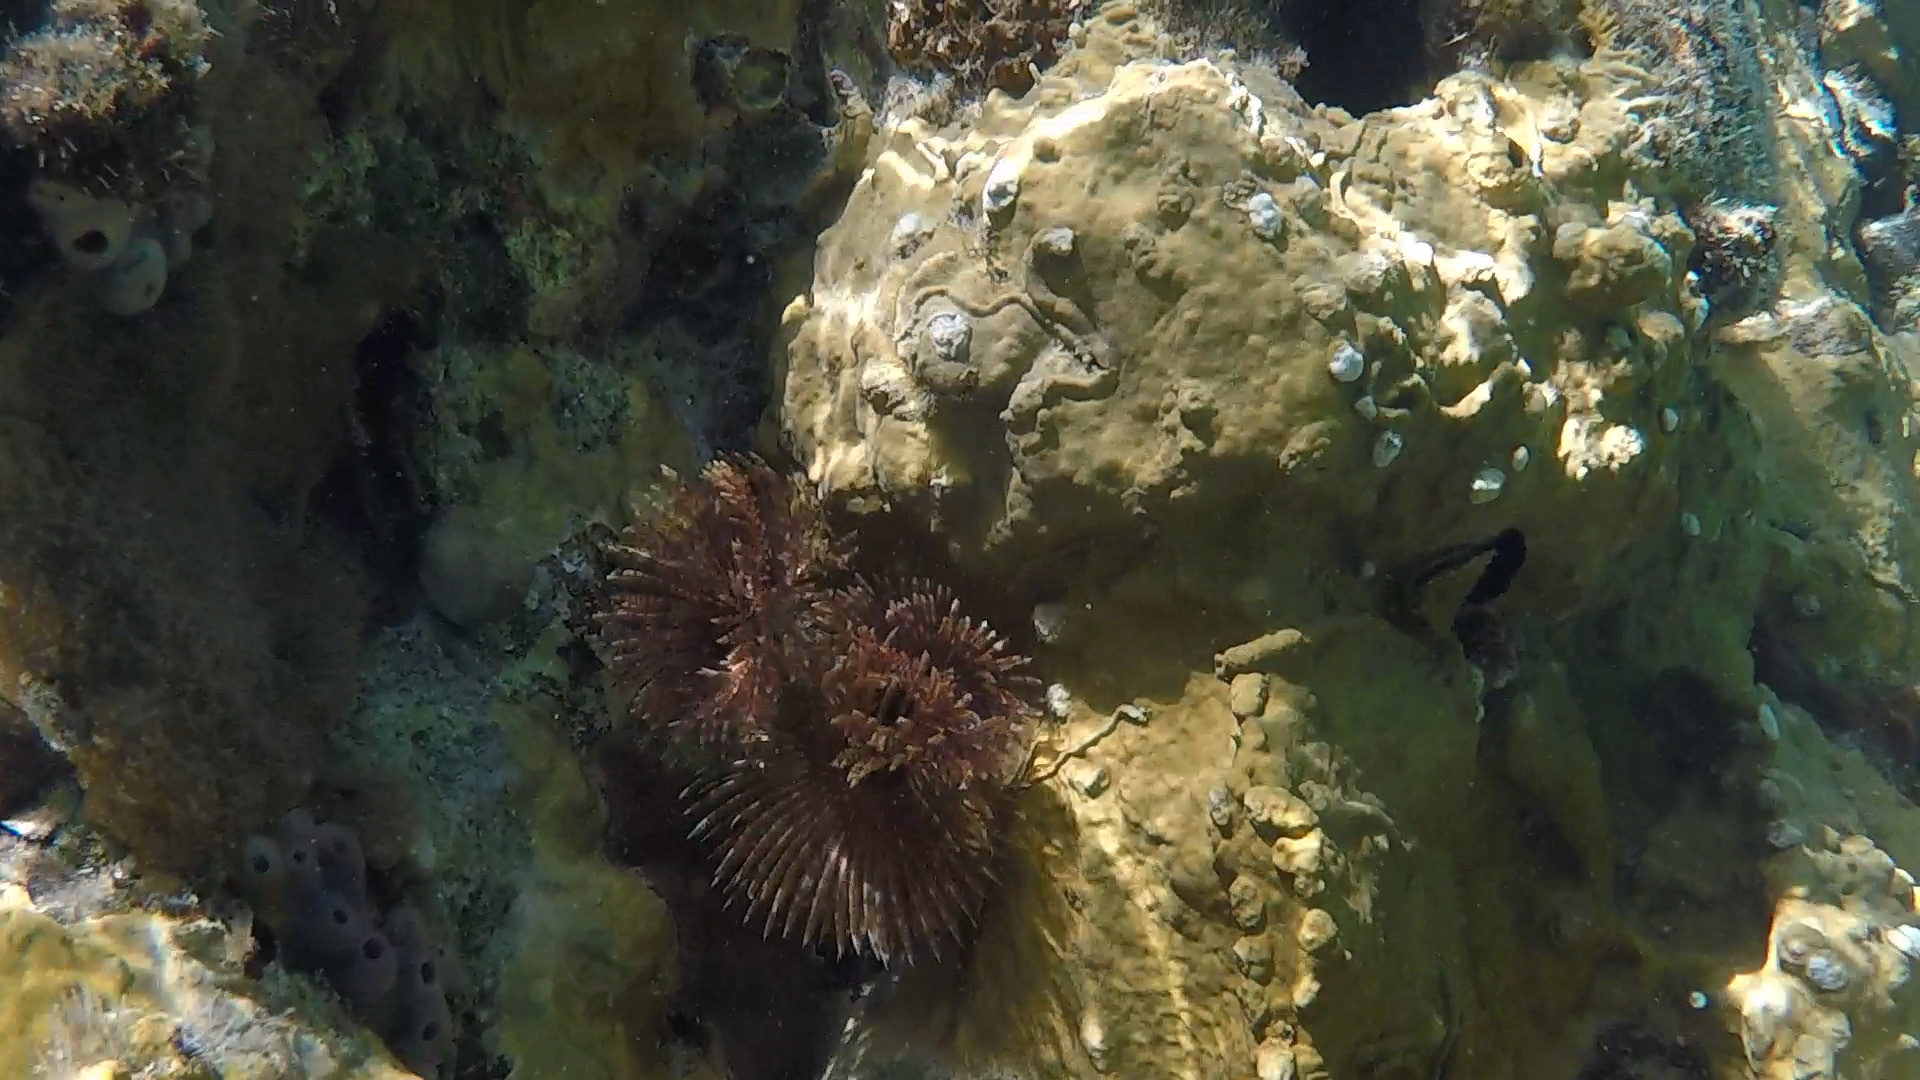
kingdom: Animalia
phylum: Annelida
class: Polychaeta
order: Sabellida
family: Sabellidae
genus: Sabellastarte
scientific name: Sabellastarte magnifica
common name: Giant feather-duster worm
